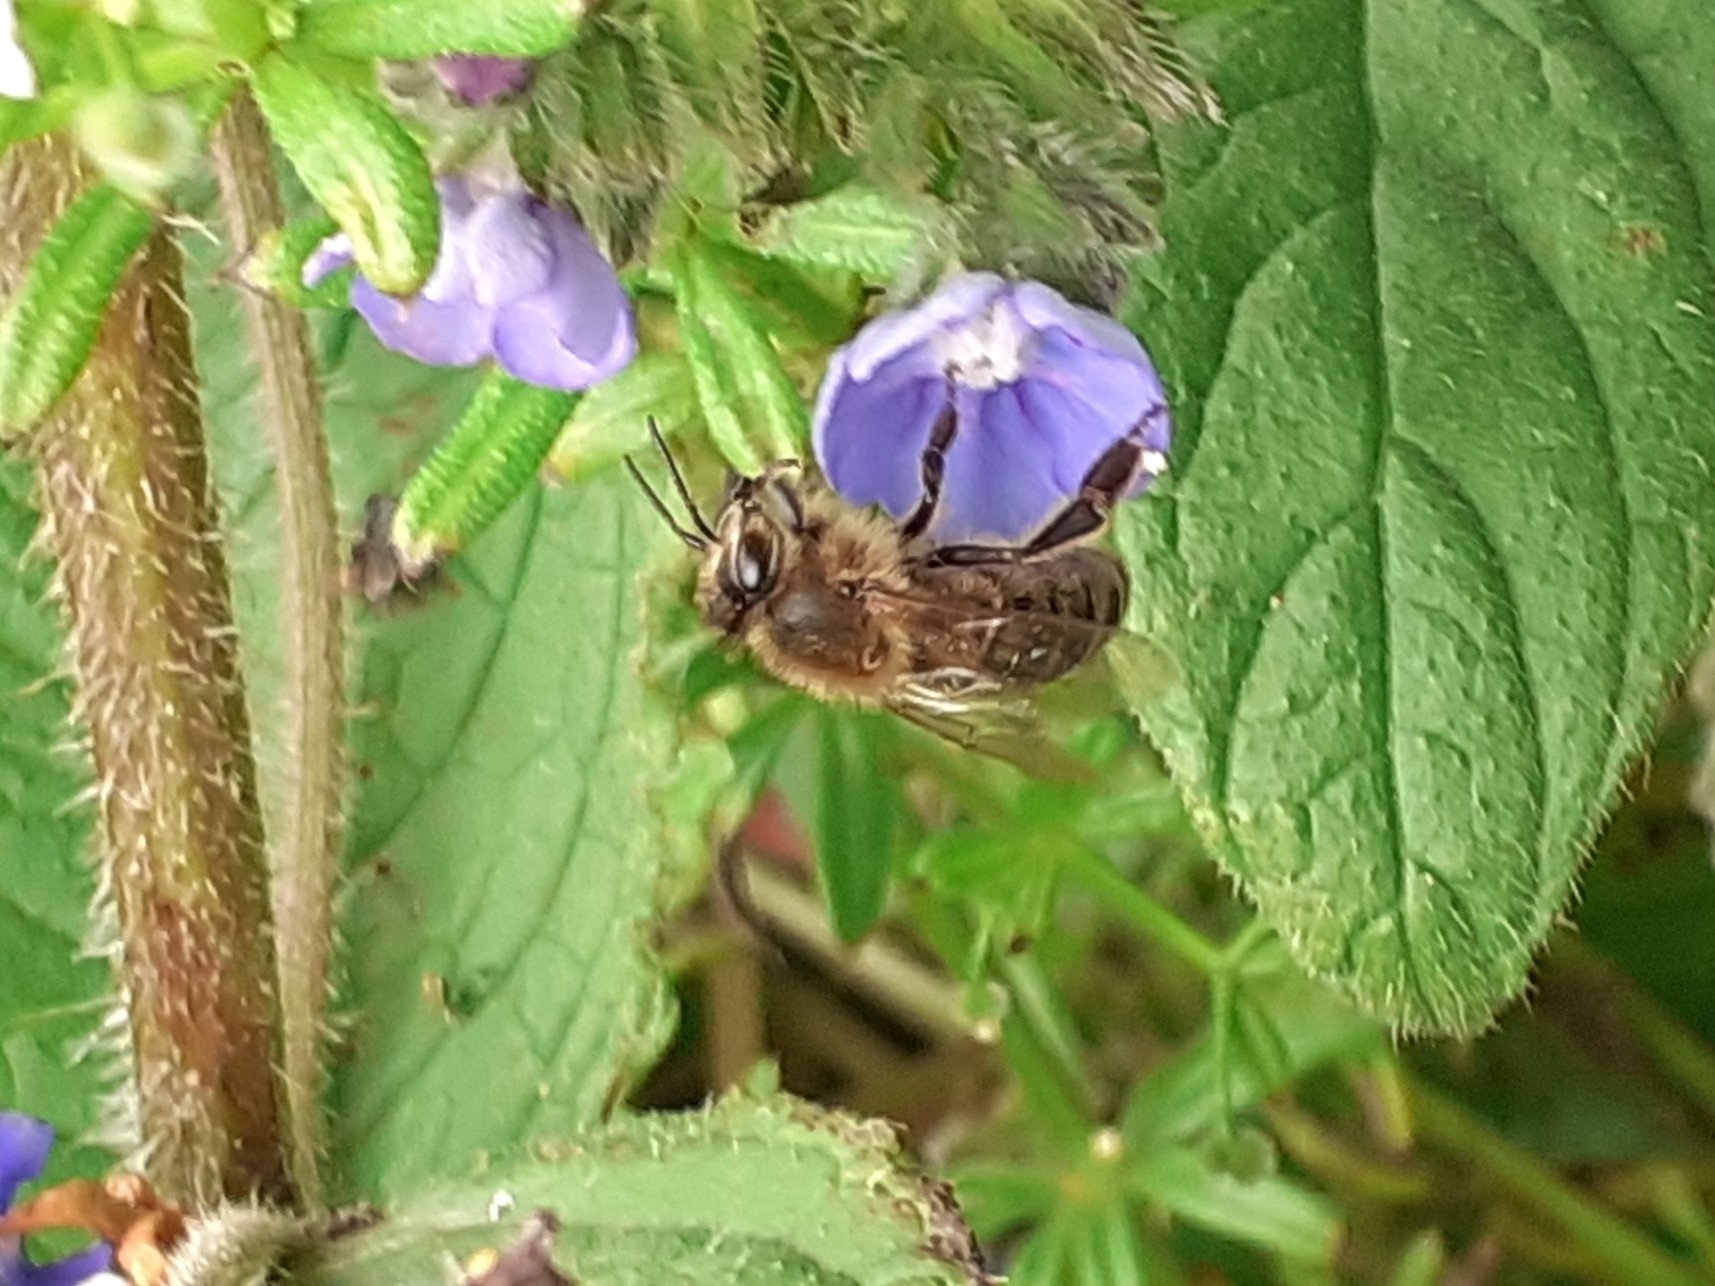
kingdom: Animalia
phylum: Arthropoda
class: Insecta
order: Hymenoptera
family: Apidae
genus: Apis
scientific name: Apis mellifera
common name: Honey bee
